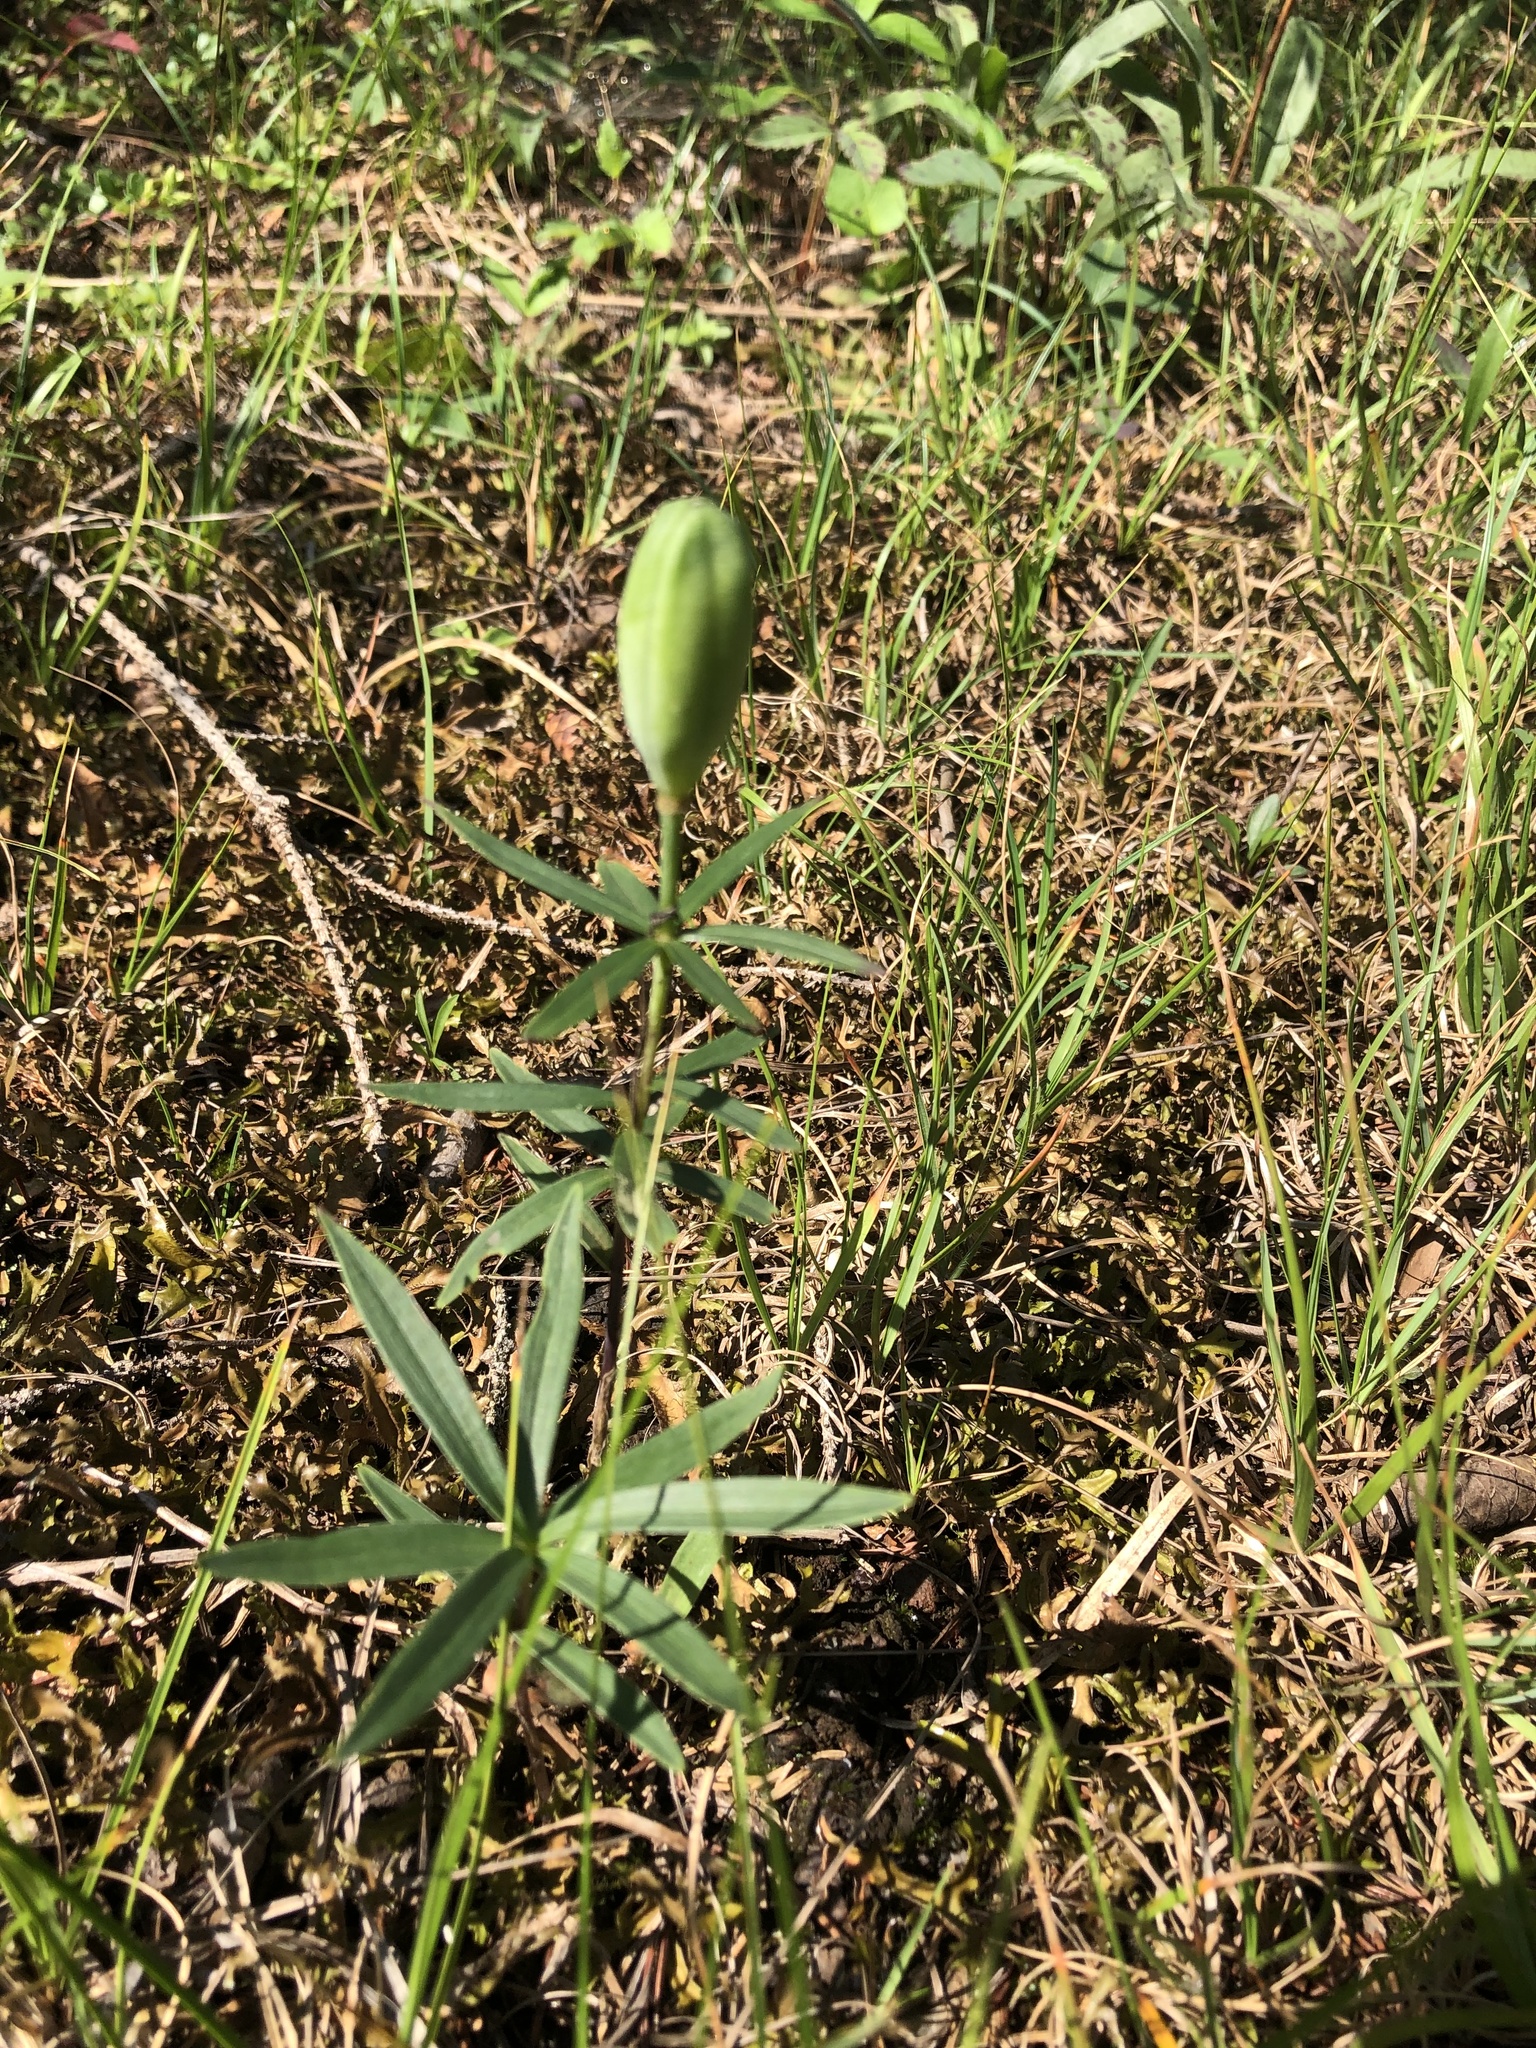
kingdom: Plantae
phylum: Tracheophyta
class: Liliopsida
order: Liliales
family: Liliaceae
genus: Lilium
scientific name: Lilium philadelphicum
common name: Red lily
